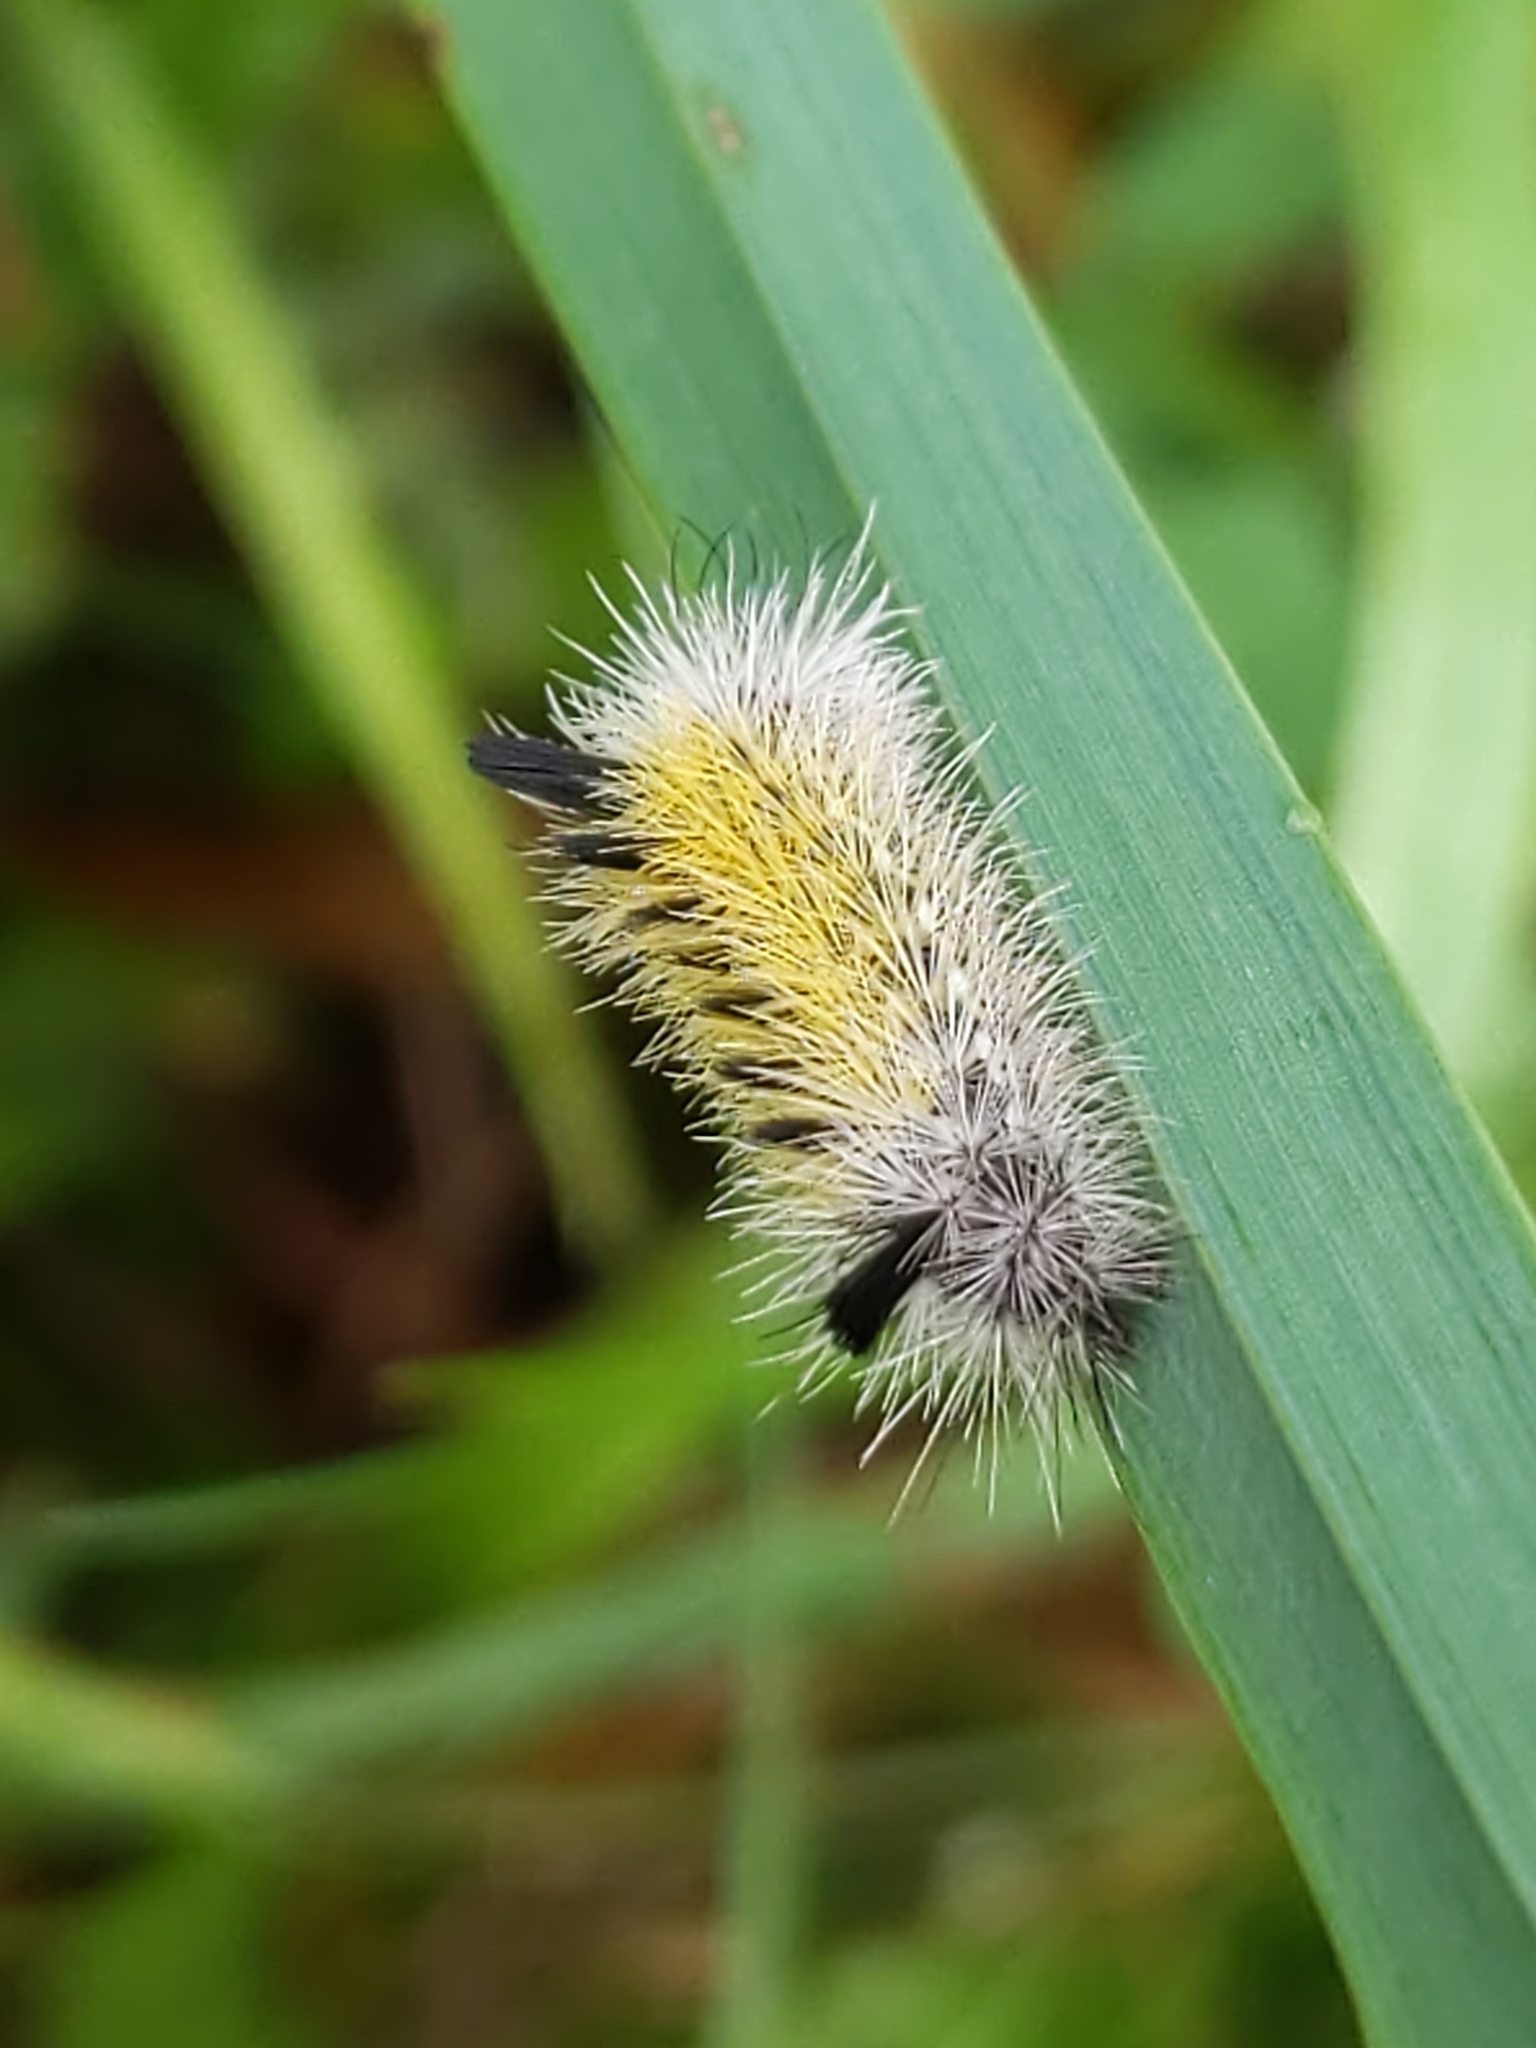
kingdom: Animalia
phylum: Arthropoda
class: Insecta
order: Lepidoptera
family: Erebidae
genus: Ctenucha
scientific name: Ctenucha virginica
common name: Virginia ctenucha moth
